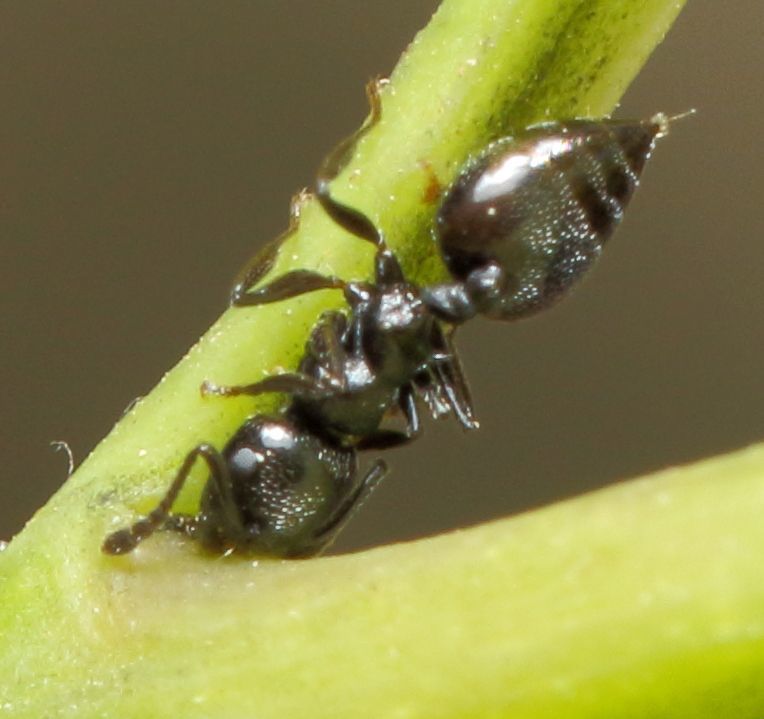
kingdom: Animalia
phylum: Arthropoda
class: Insecta
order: Hymenoptera
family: Formicidae
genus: Crematogaster
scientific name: Crematogaster liengmei
